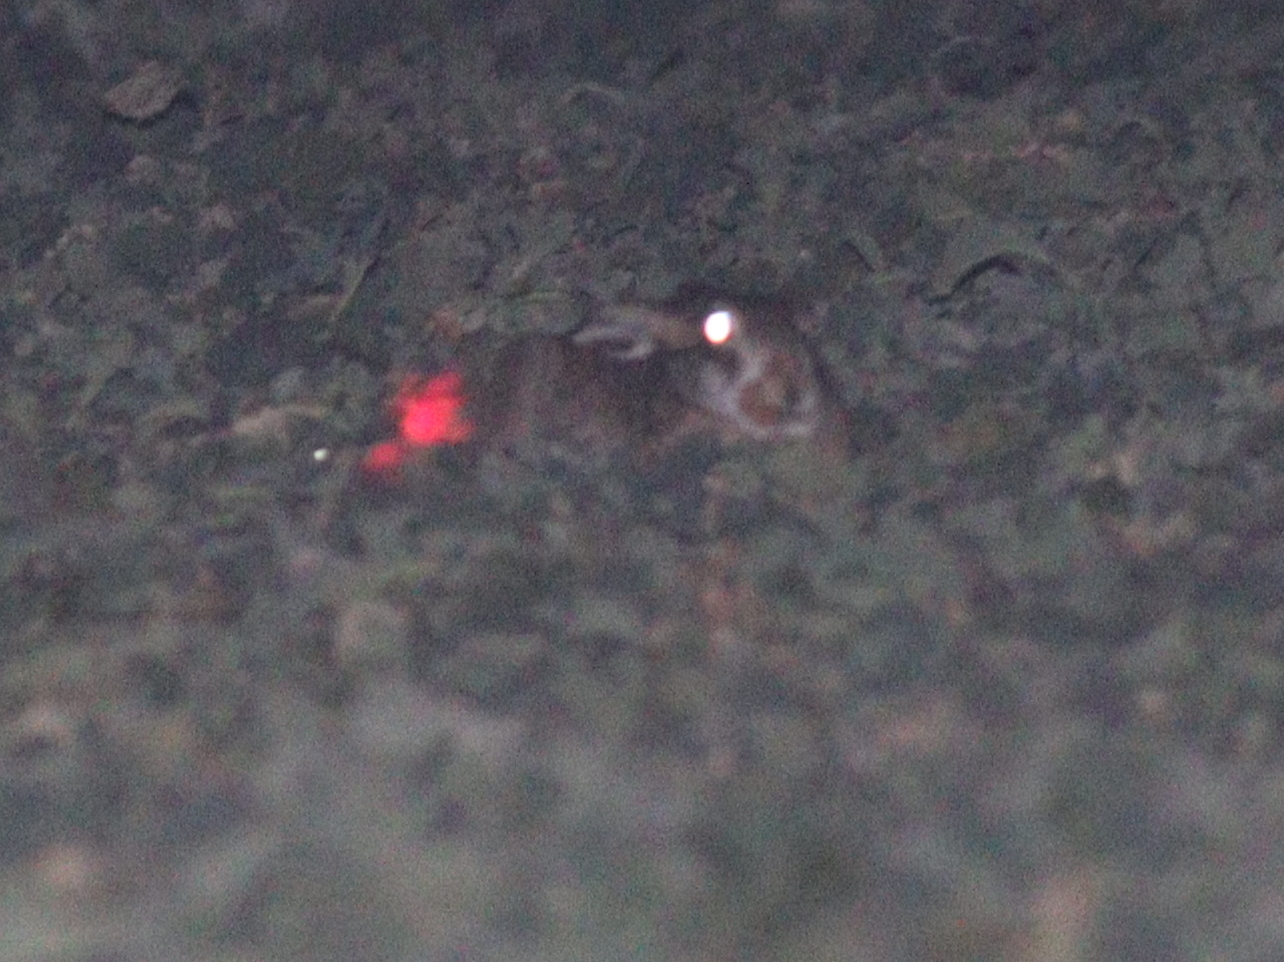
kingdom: Animalia
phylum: Chordata
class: Mammalia
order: Lagomorpha
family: Leporidae
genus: Lepus
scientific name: Lepus europaeus
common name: European hare
